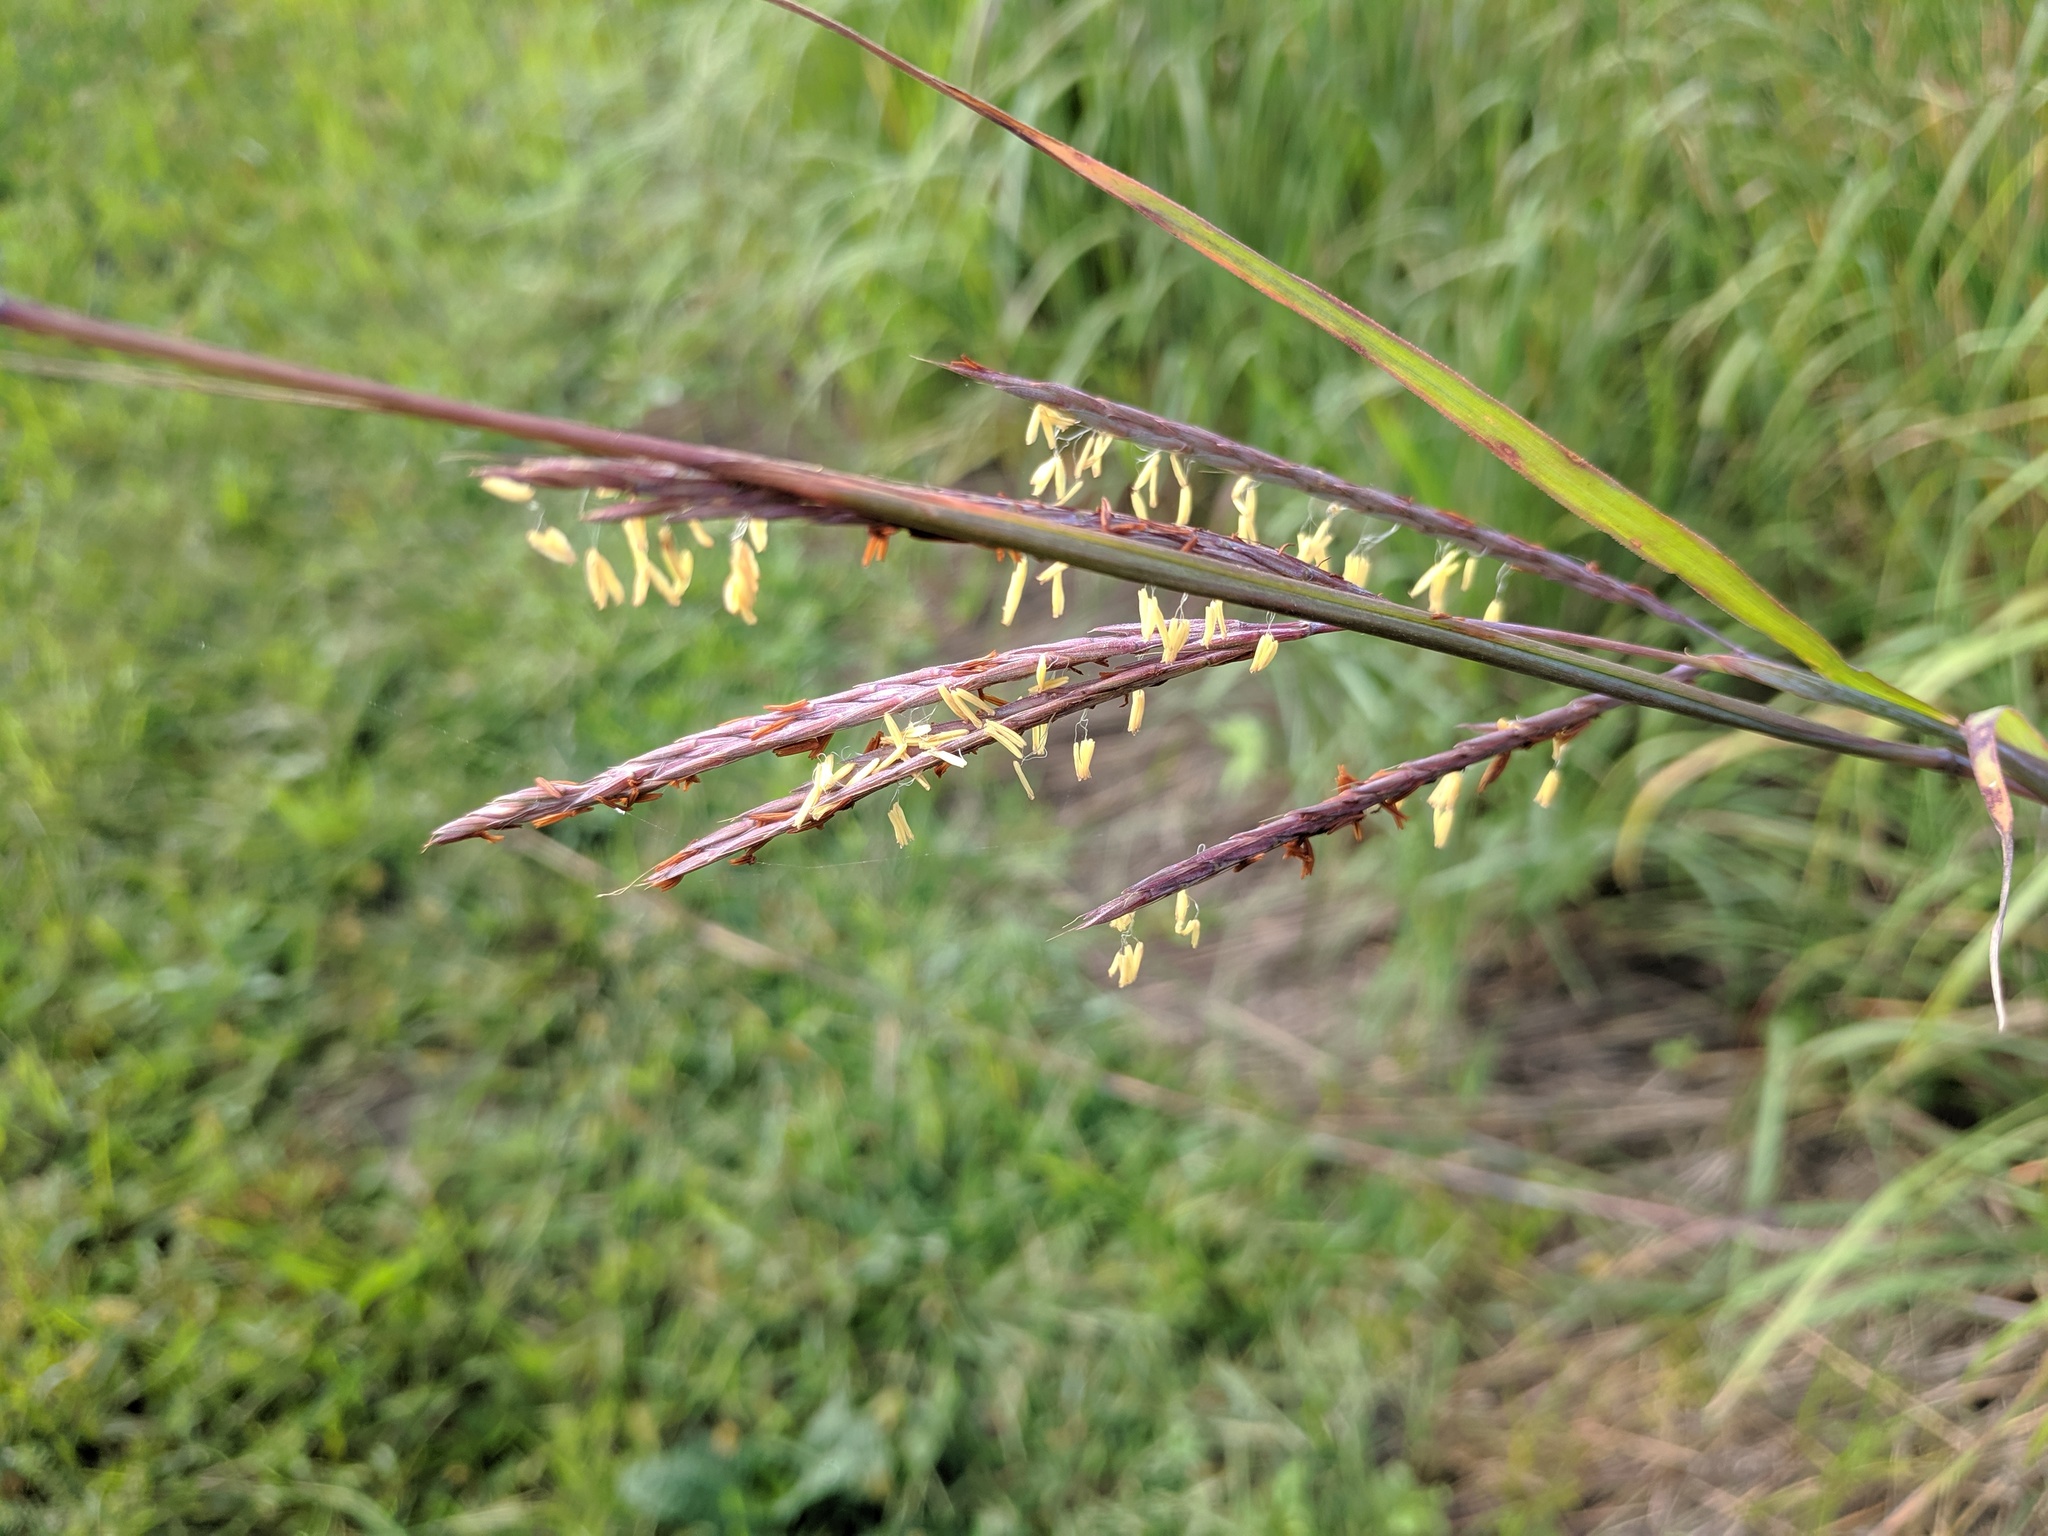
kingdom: Plantae
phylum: Tracheophyta
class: Liliopsida
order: Poales
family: Poaceae
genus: Andropogon
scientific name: Andropogon gerardi
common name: Big bluestem
